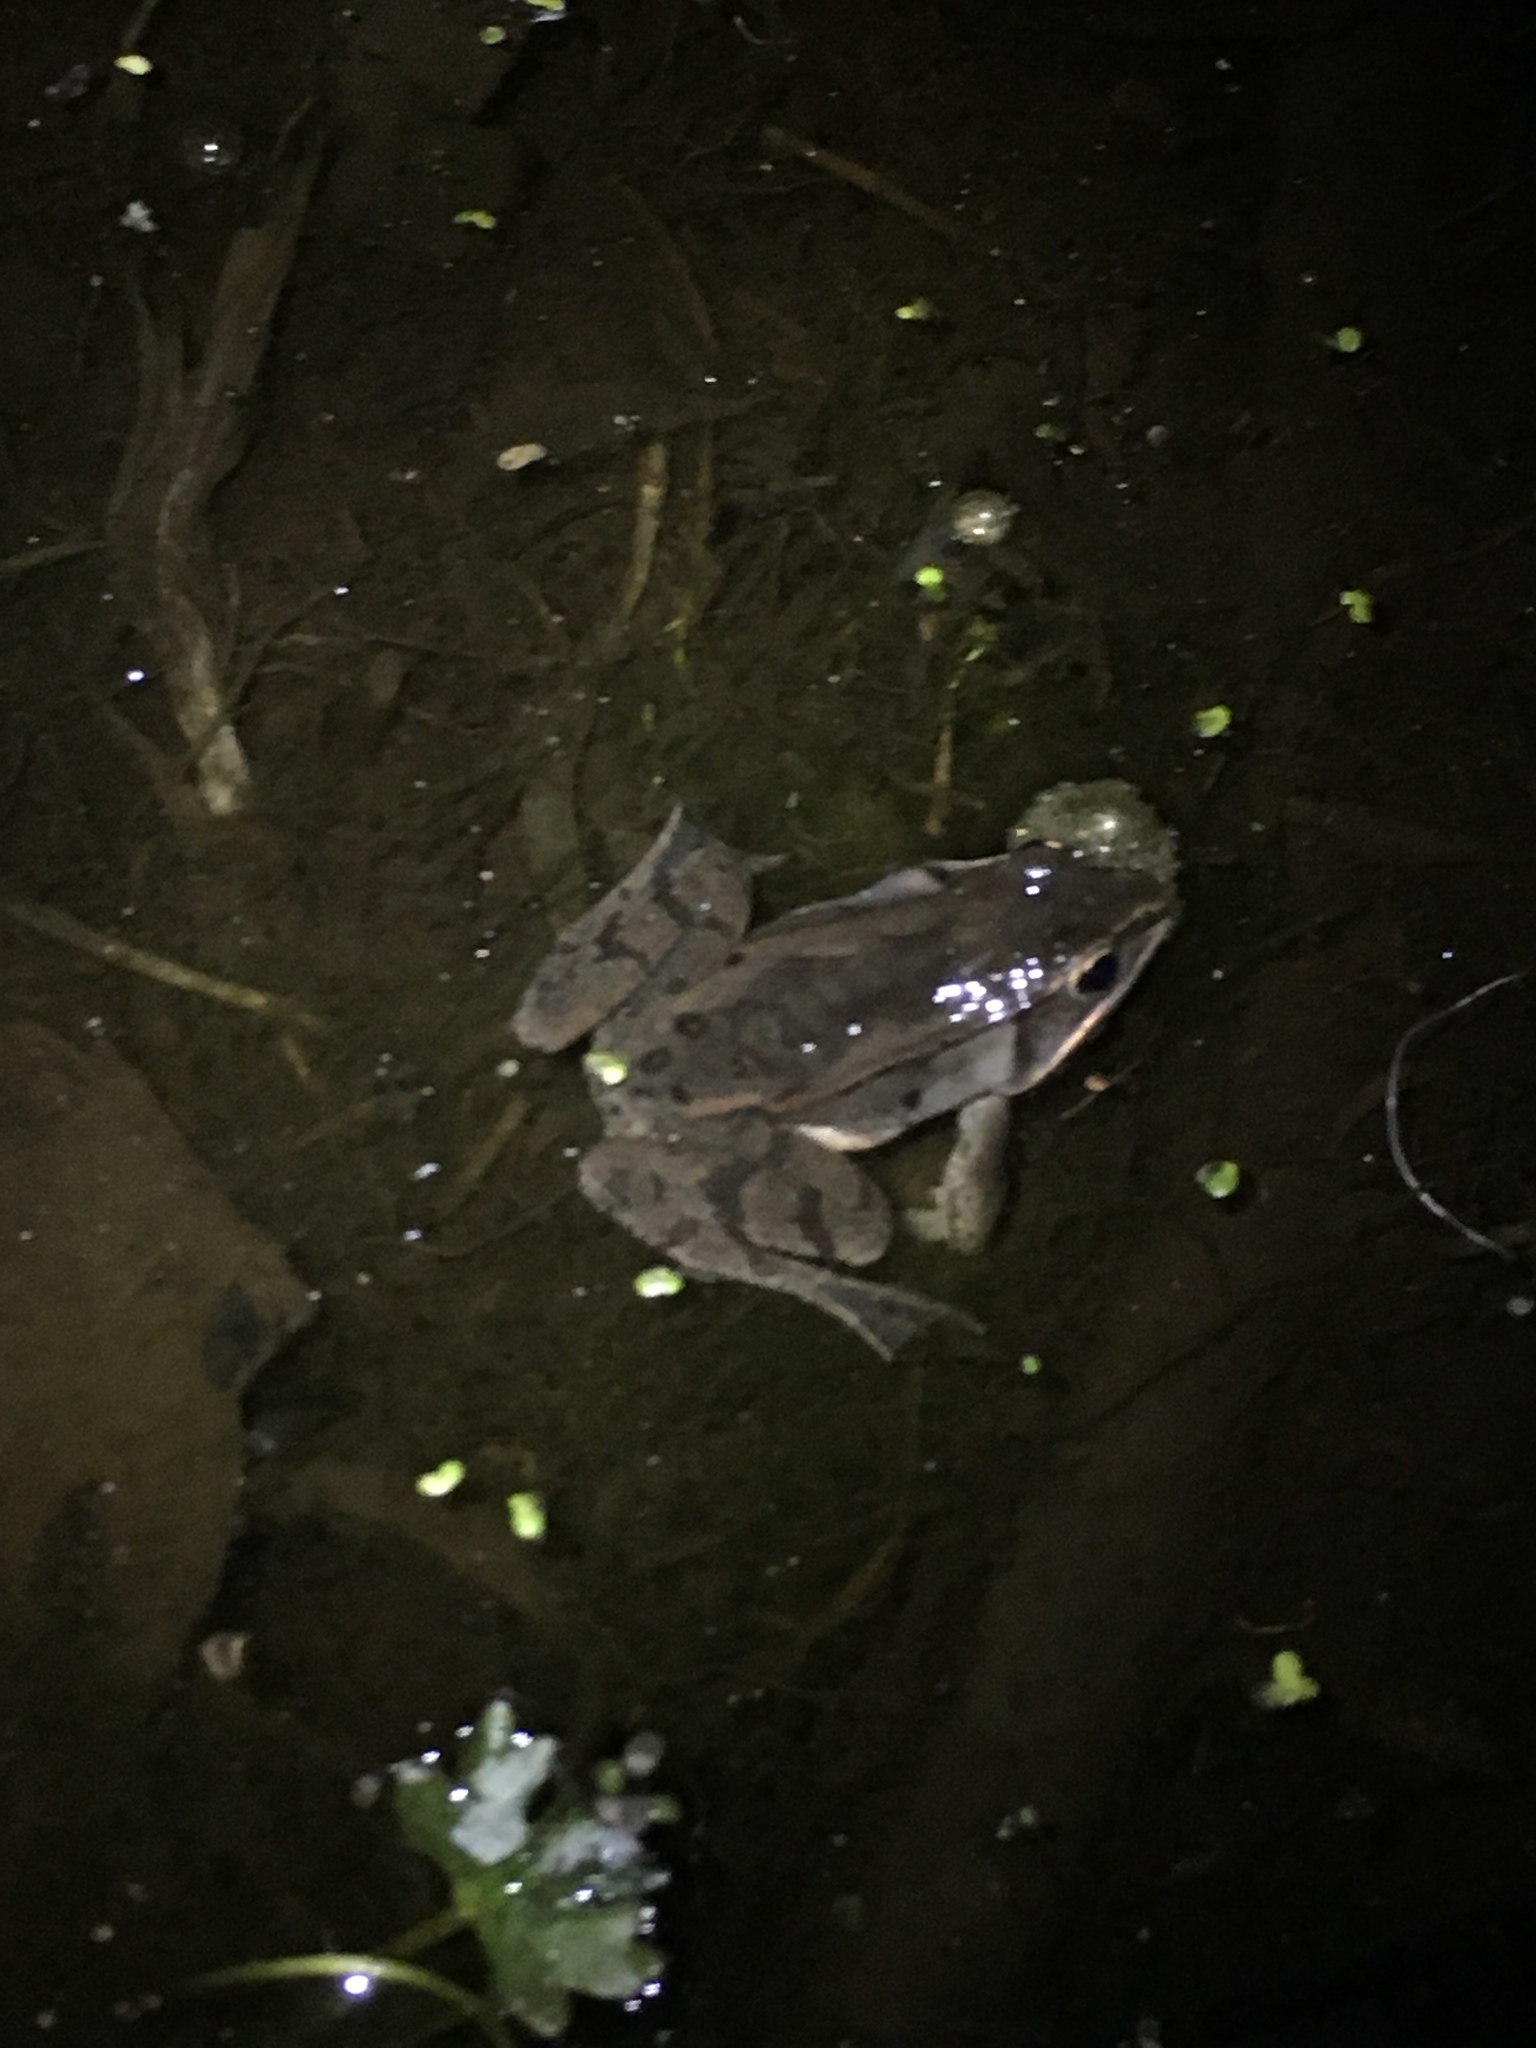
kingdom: Animalia
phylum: Chordata
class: Amphibia
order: Anura
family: Ranidae
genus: Lithobates
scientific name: Lithobates sylvaticus
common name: Wood frog
